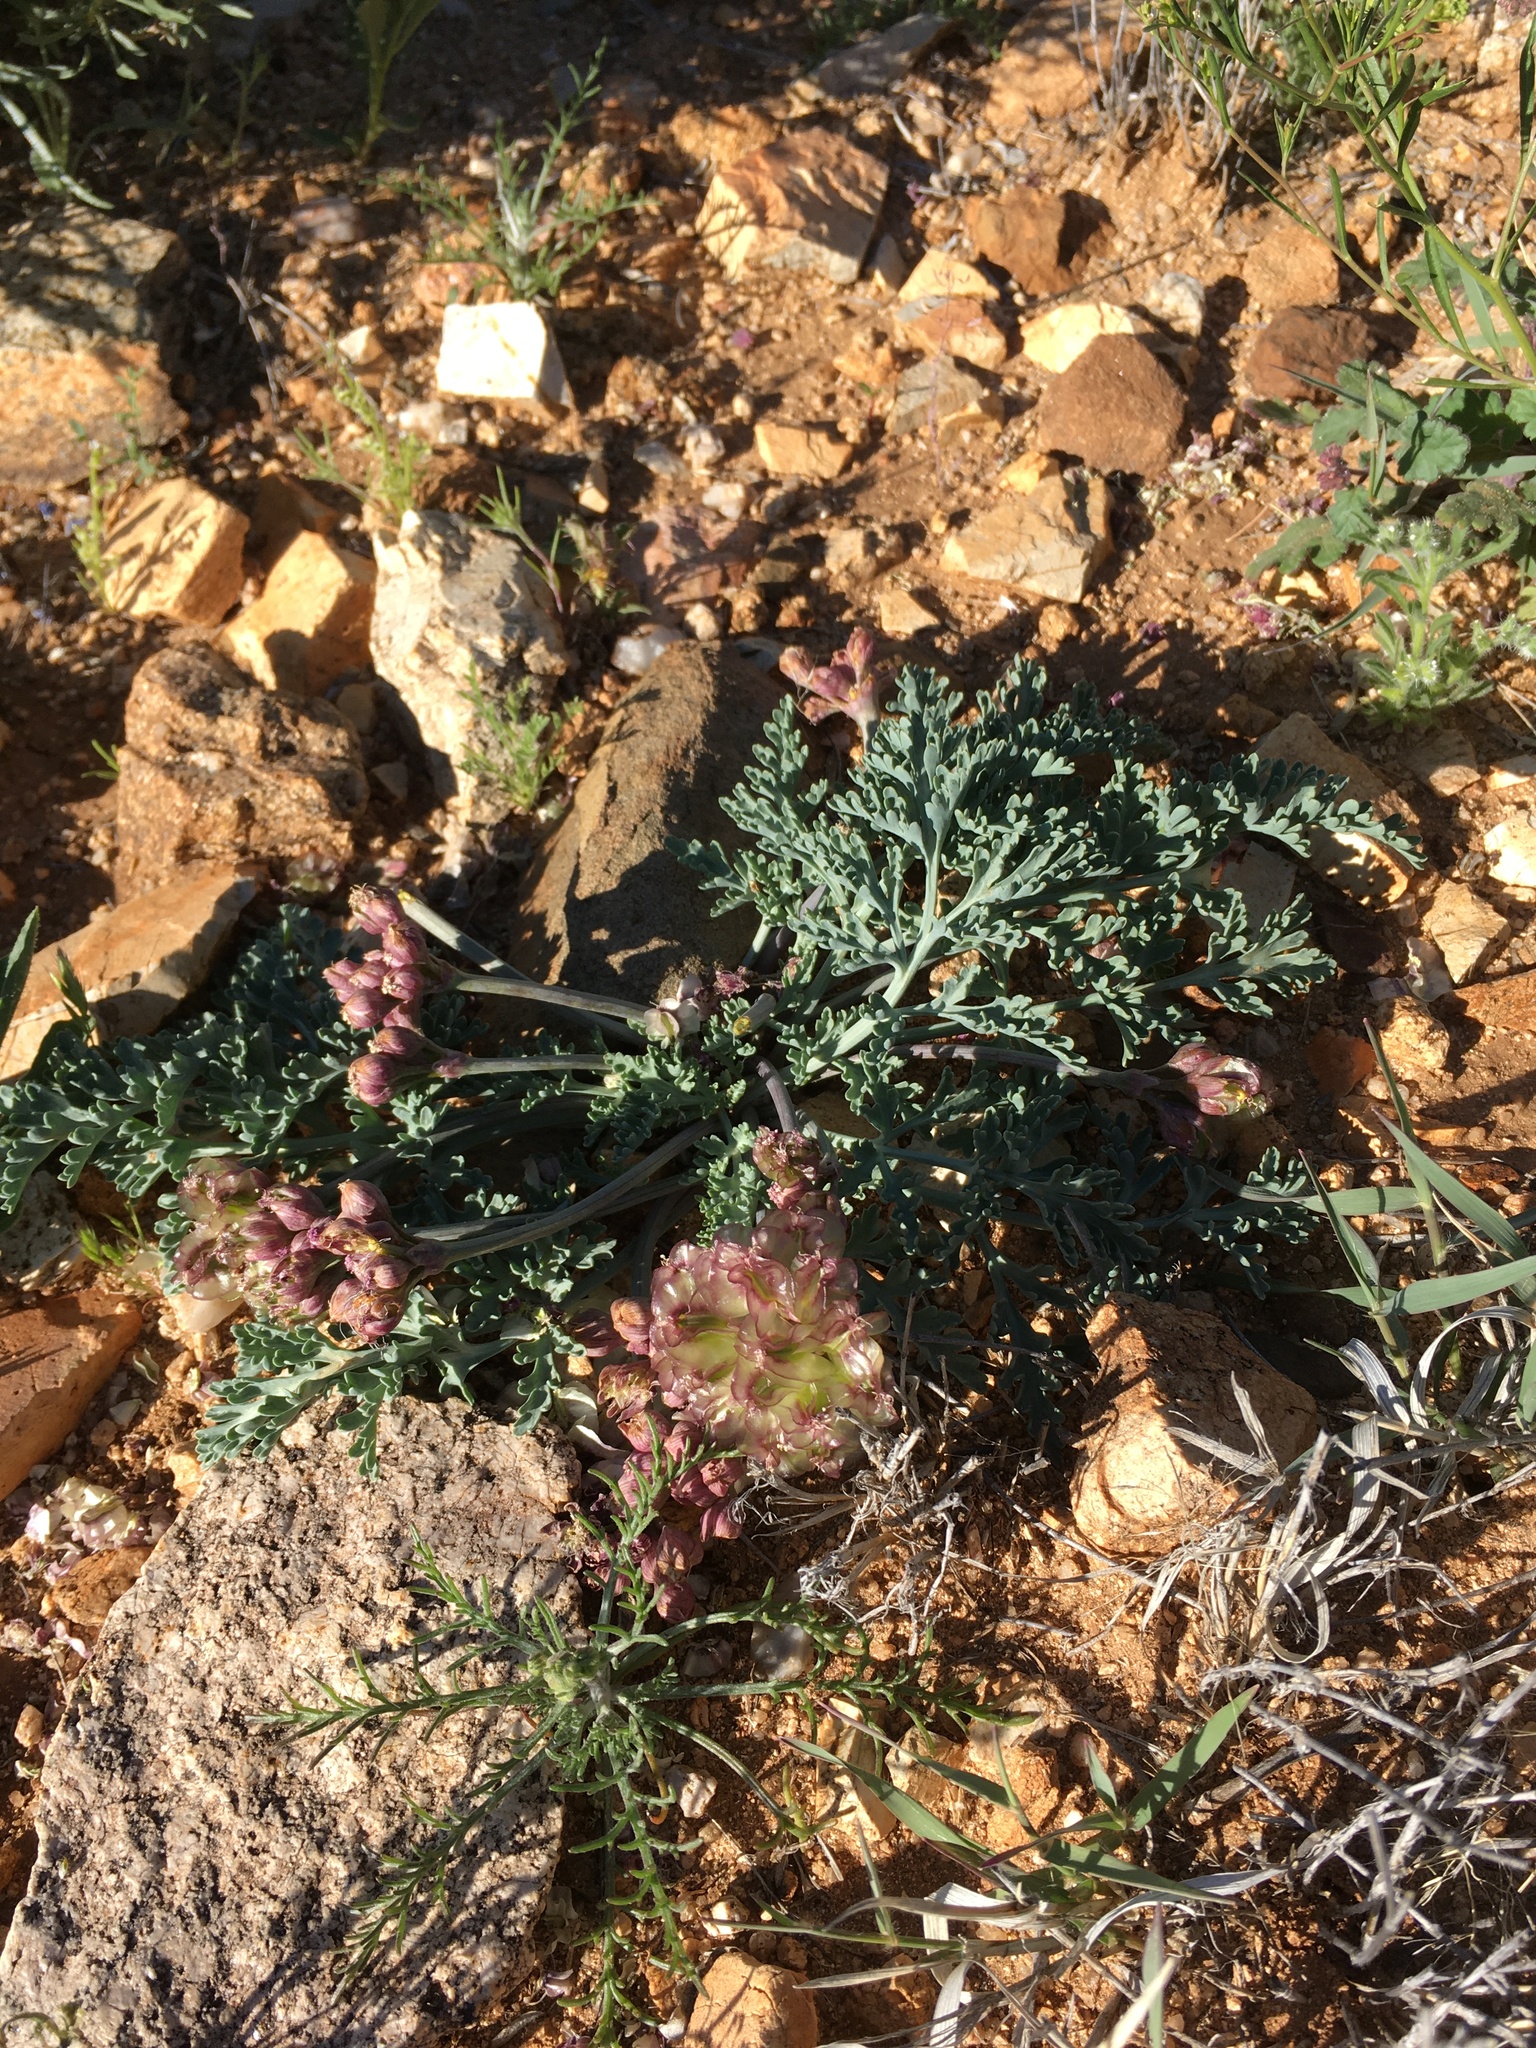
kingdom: Plantae
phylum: Tracheophyta
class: Magnoliopsida
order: Apiales
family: Apiaceae
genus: Vesper
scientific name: Vesper multinervatus
